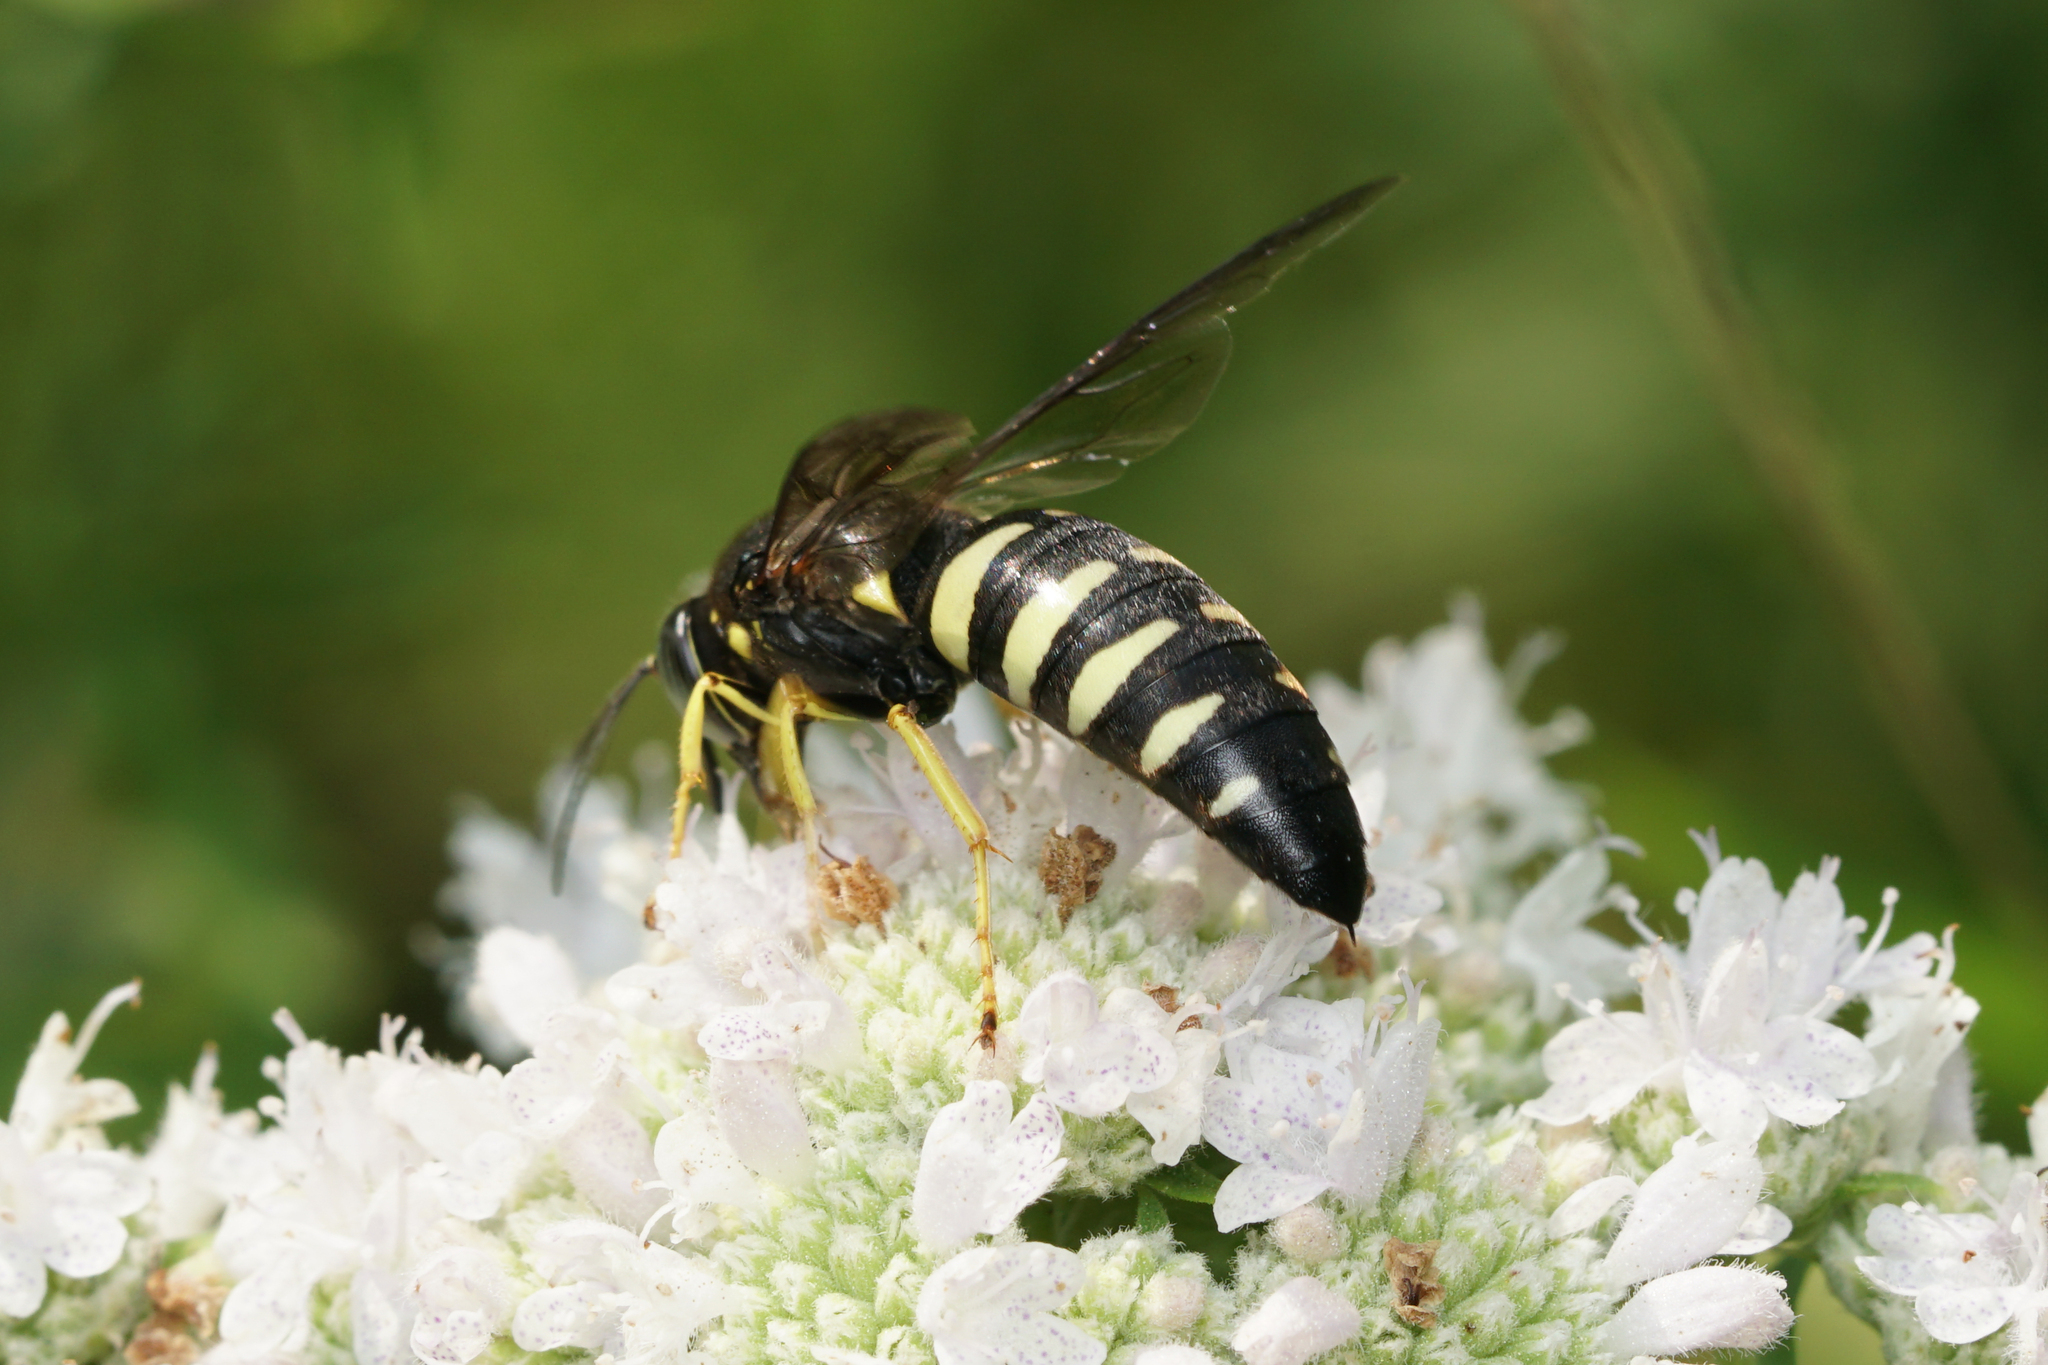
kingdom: Animalia
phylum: Arthropoda
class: Insecta
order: Hymenoptera
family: Crabronidae
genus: Bicyrtes
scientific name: Bicyrtes quadrifasciatus
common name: Four-banded stink bug hunter wasp
